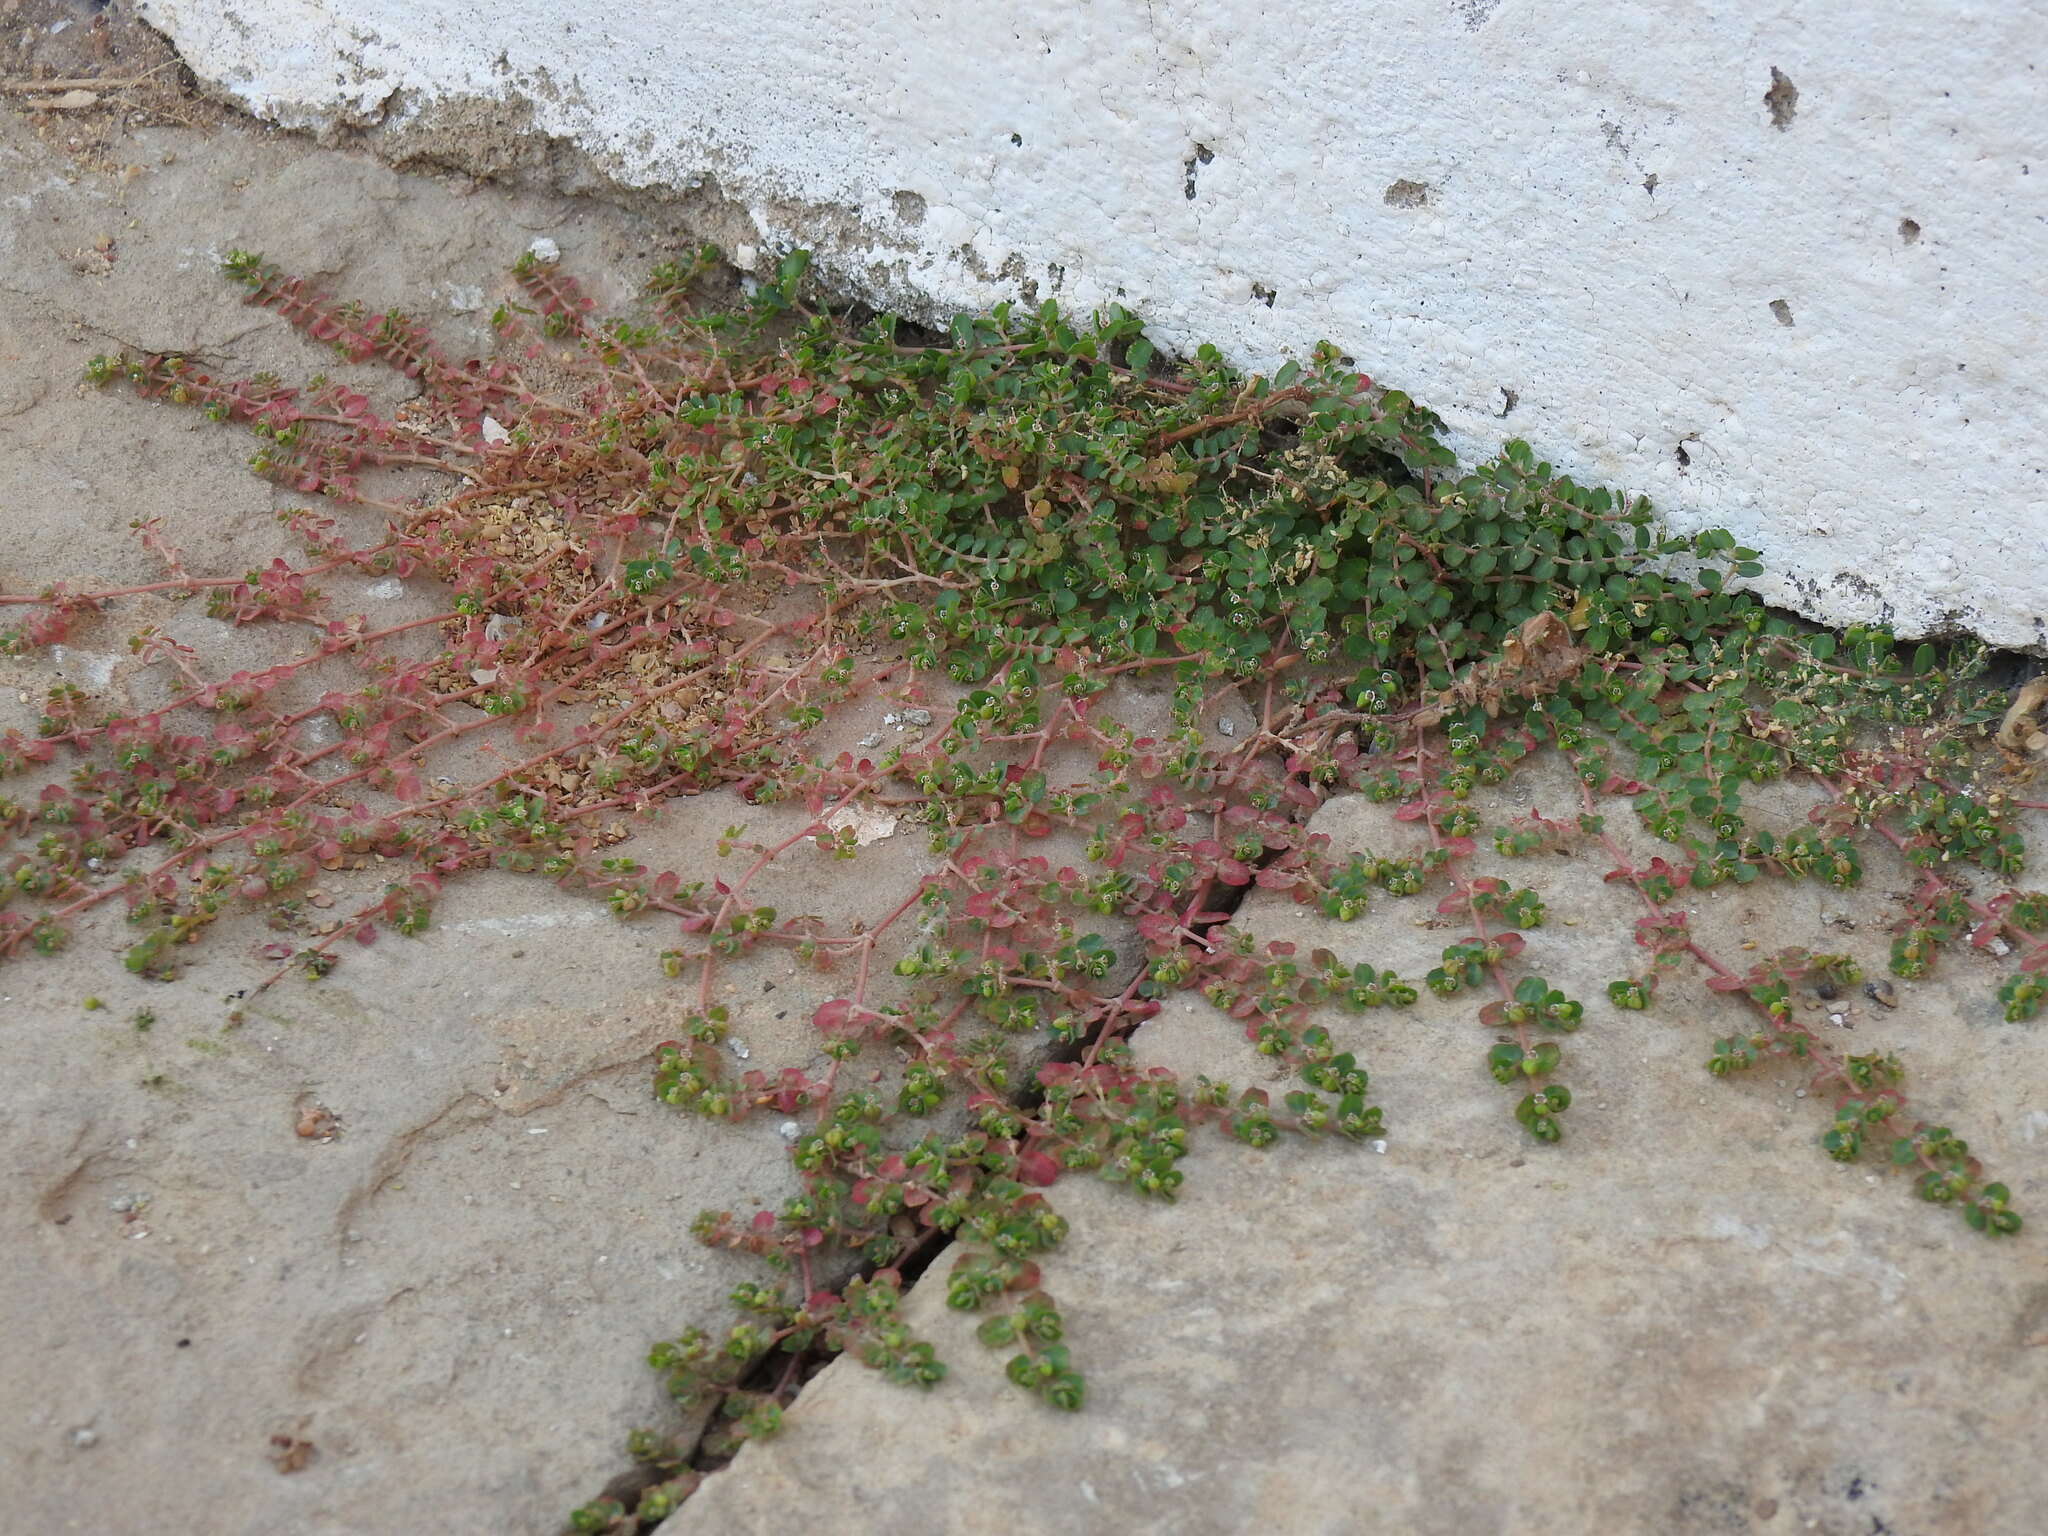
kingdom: Plantae
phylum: Tracheophyta
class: Magnoliopsida
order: Malpighiales
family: Euphorbiaceae
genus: Euphorbia
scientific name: Euphorbia serpens
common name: Matted sandmat
